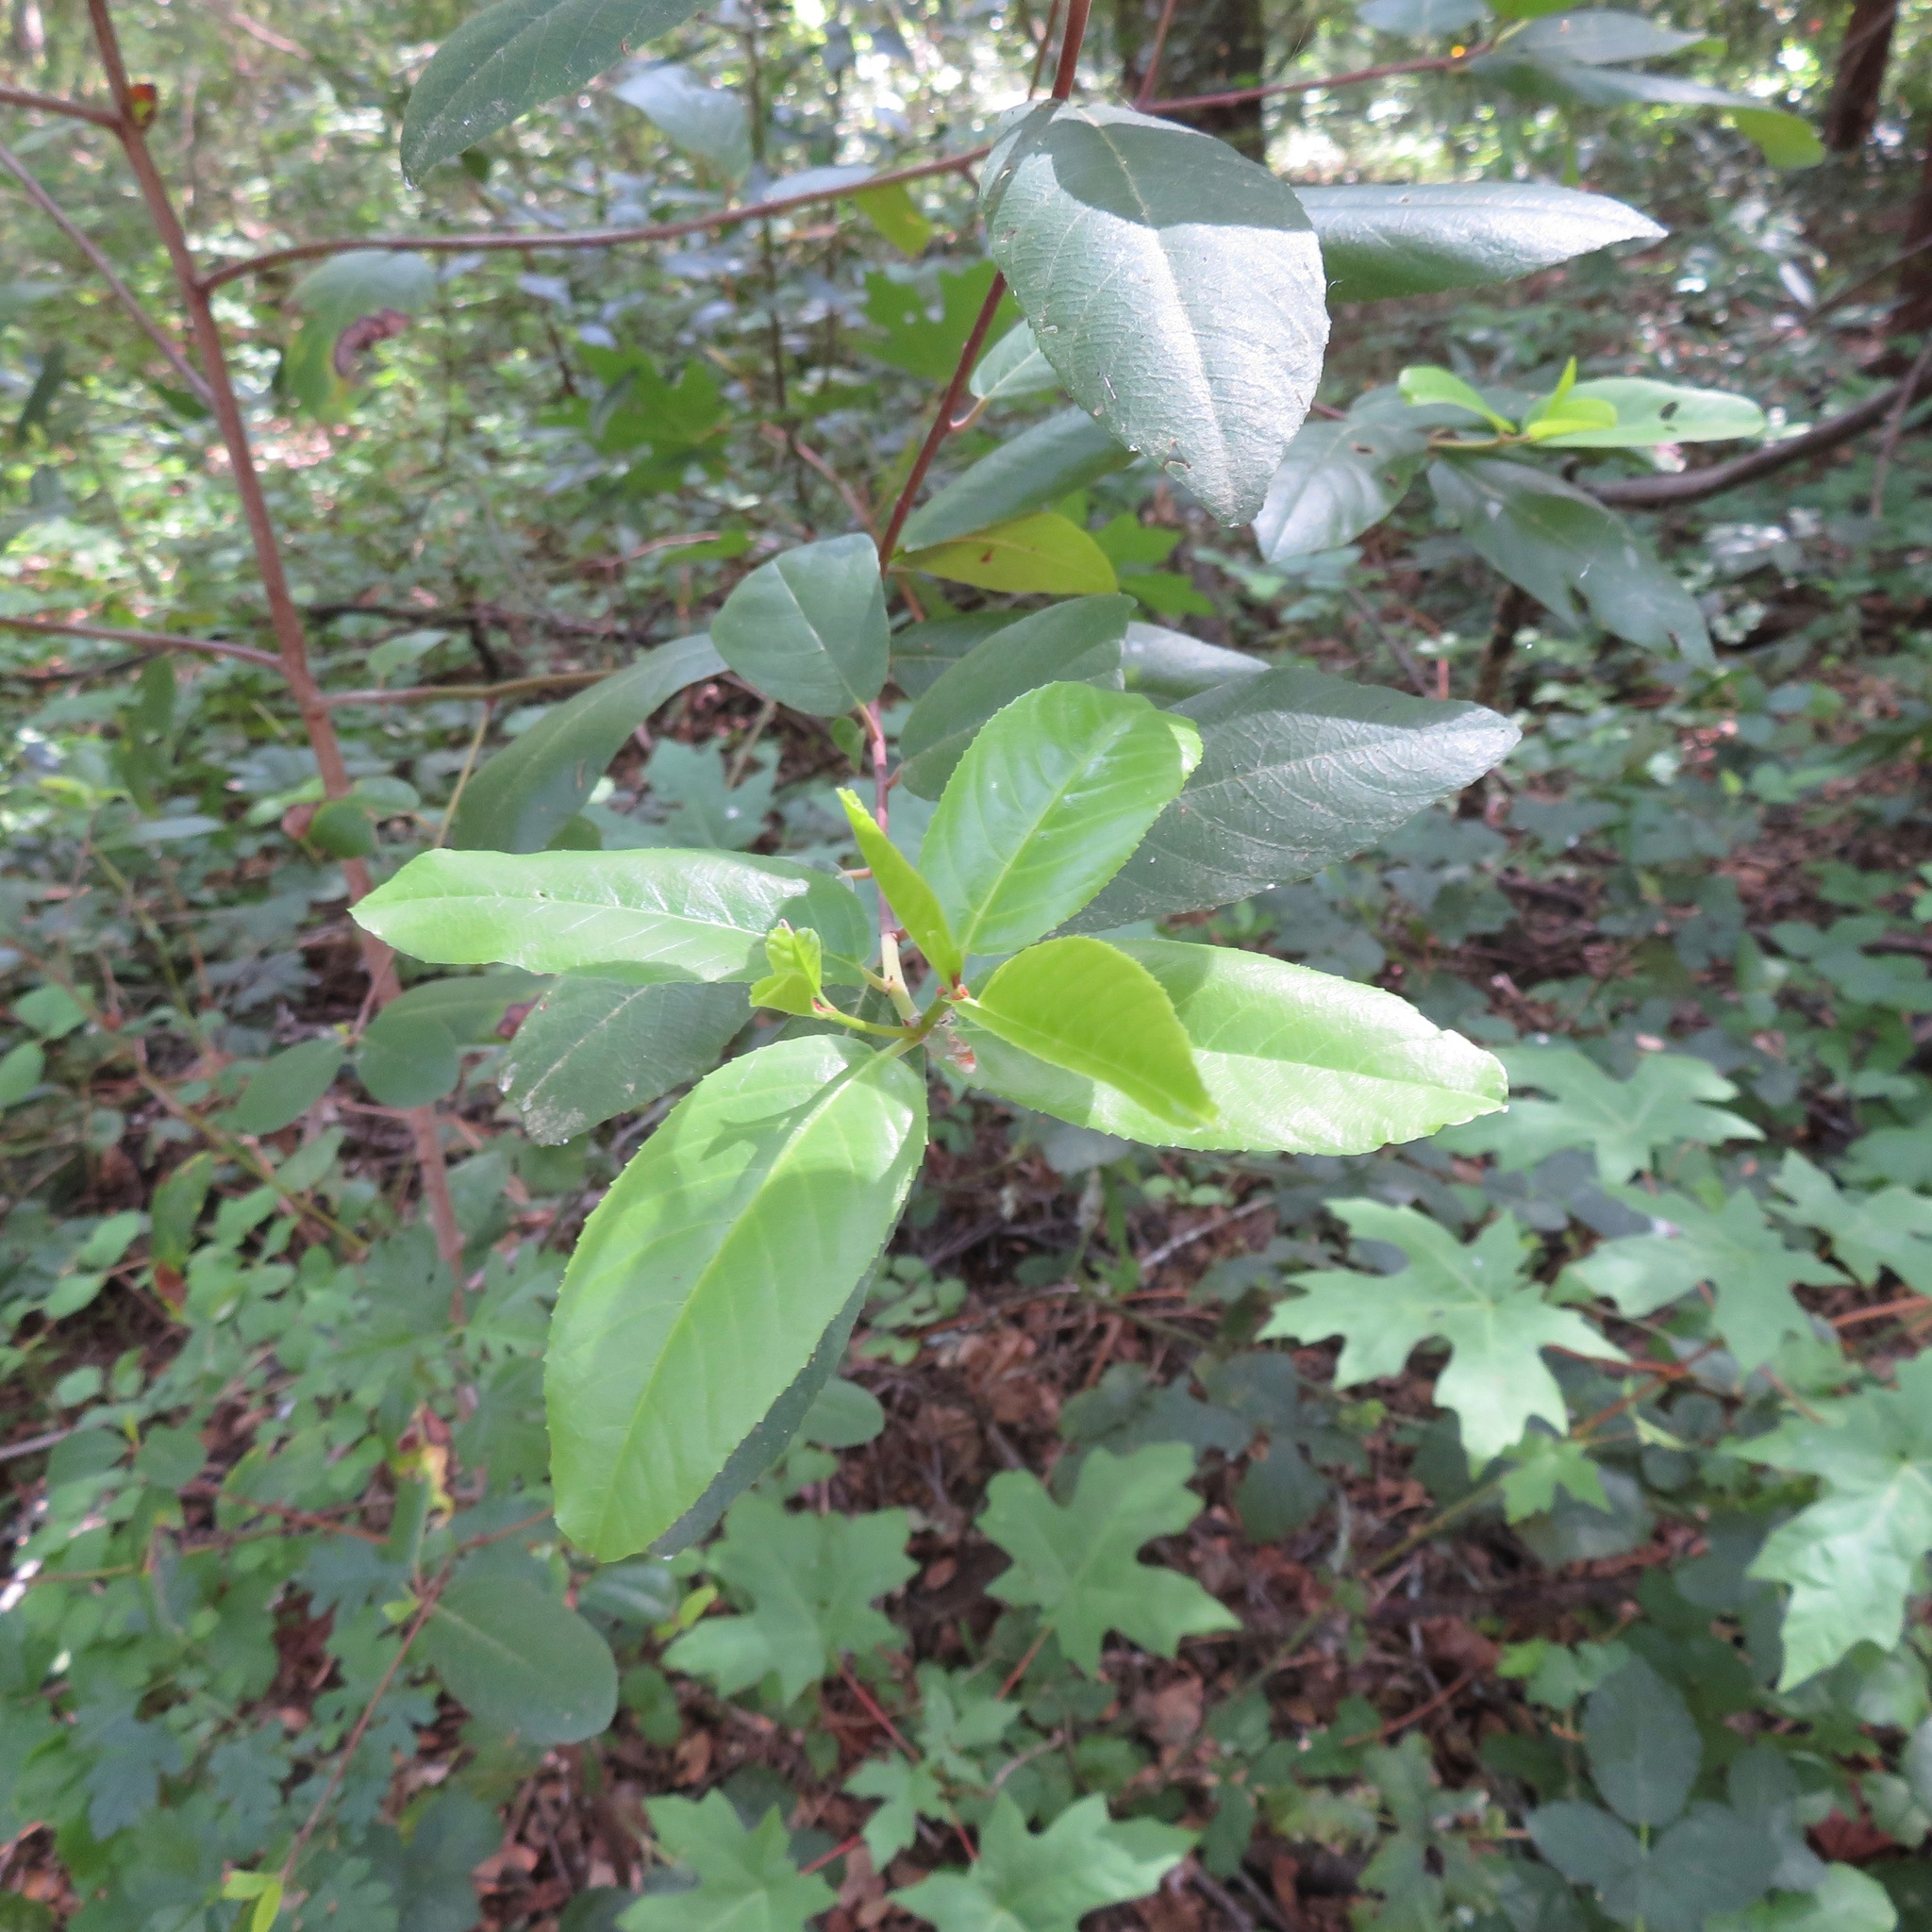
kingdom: Plantae
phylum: Tracheophyta
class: Magnoliopsida
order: Rosales
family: Rhamnaceae
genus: Frangula
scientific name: Frangula californica
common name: California buckthorn
